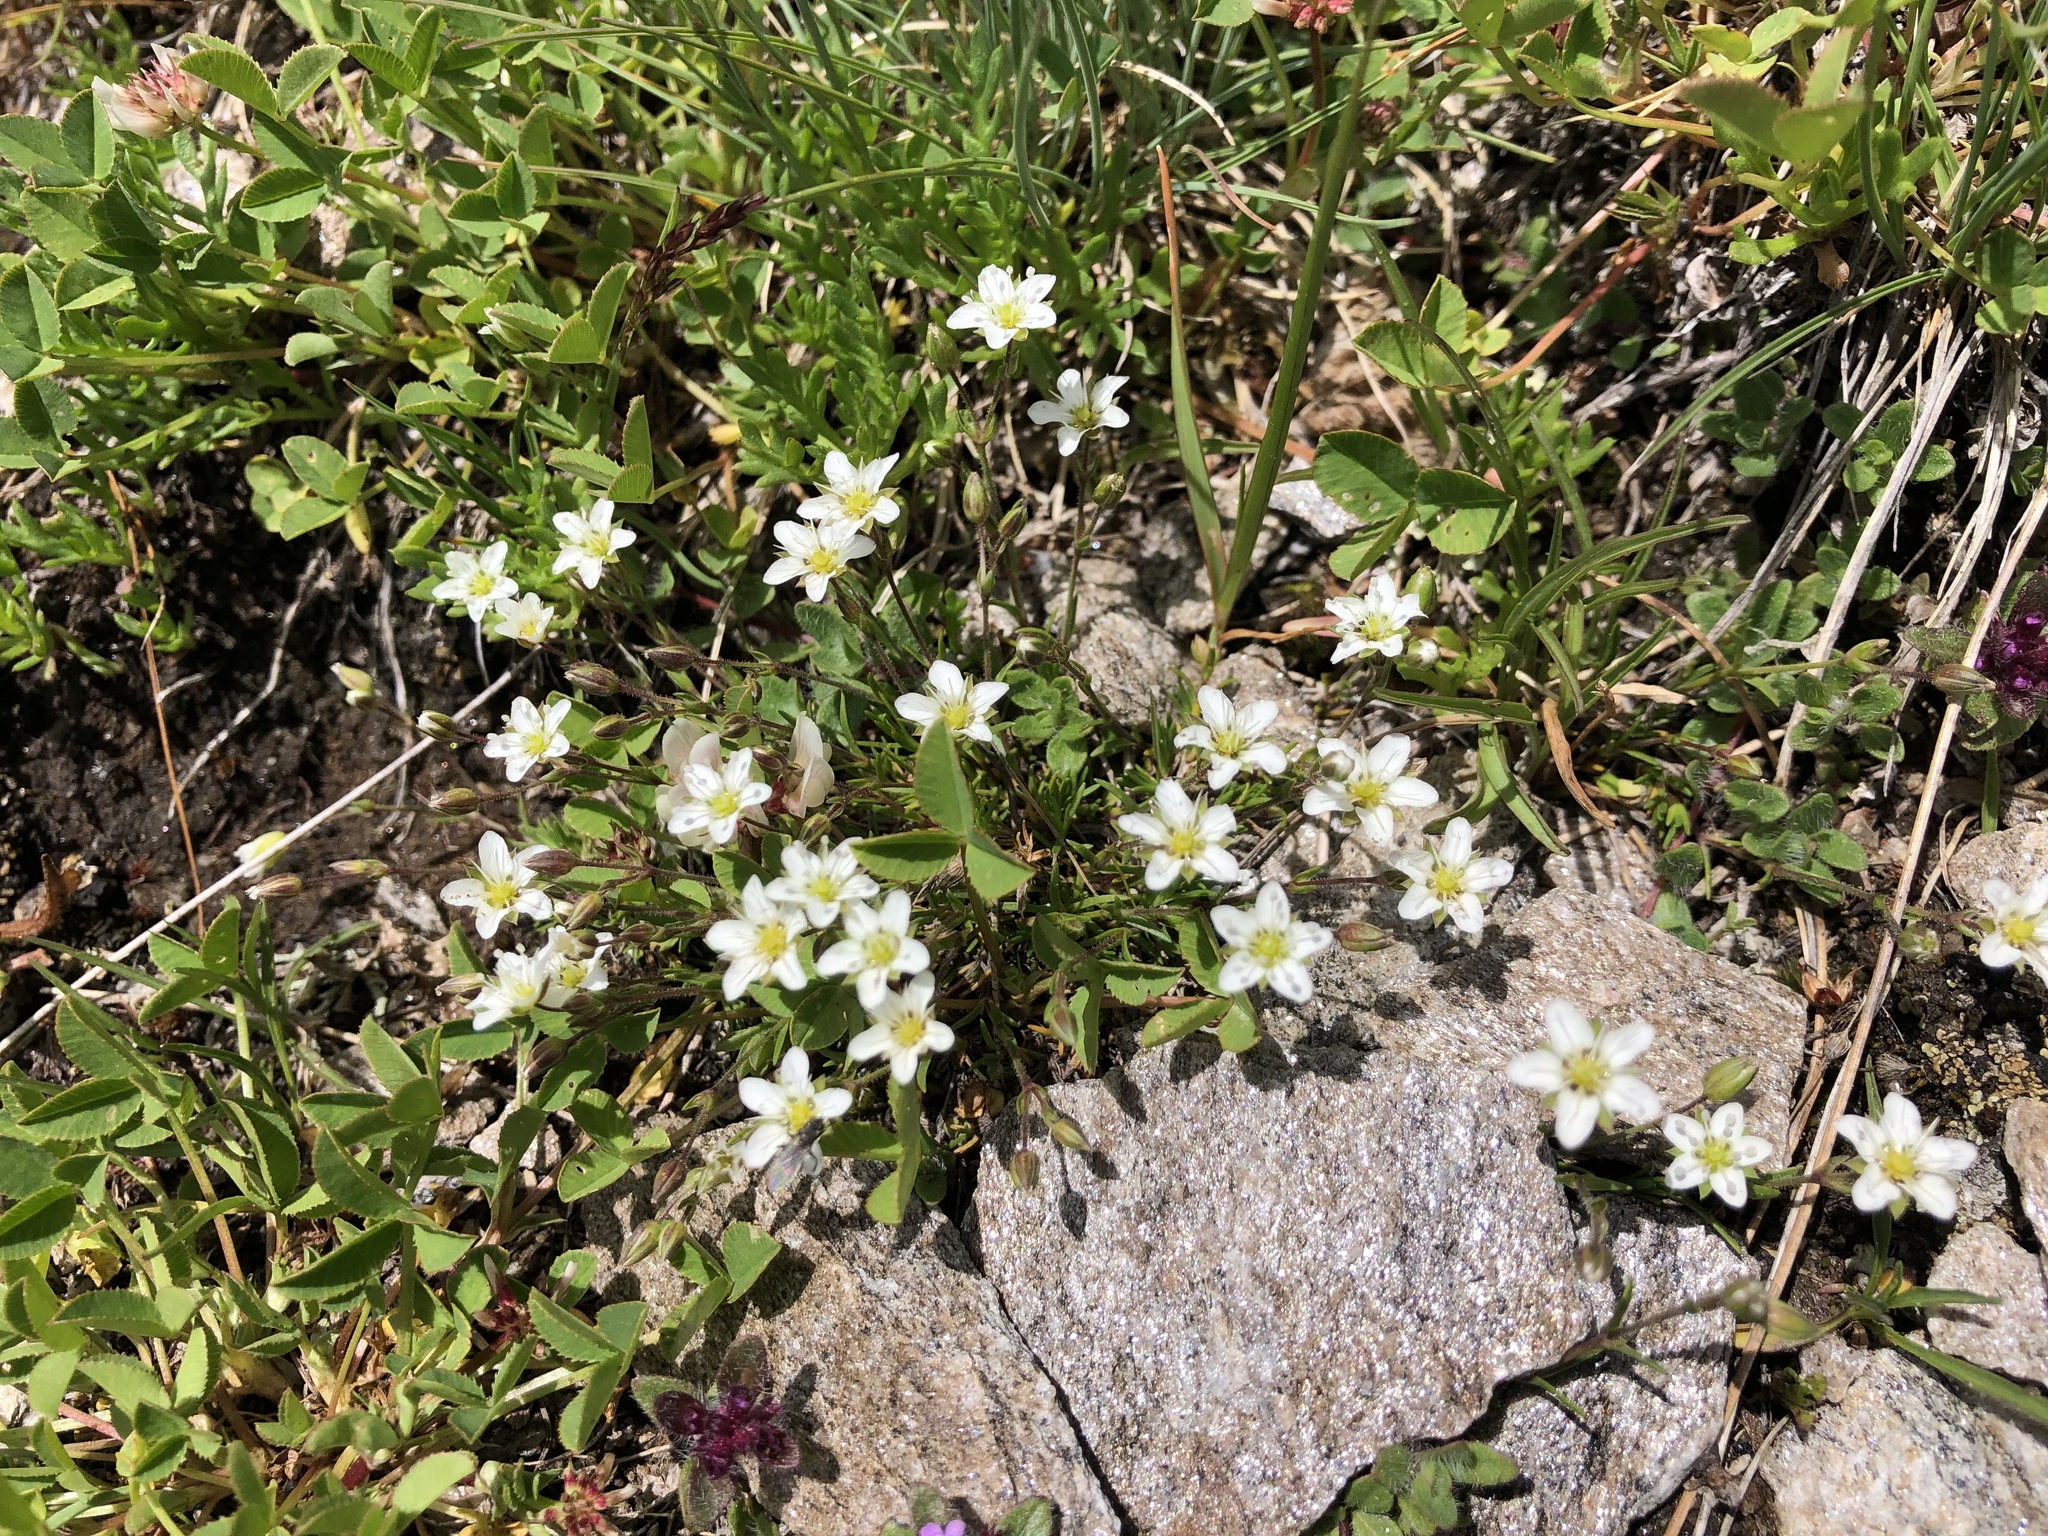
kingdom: Plantae
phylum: Tracheophyta
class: Magnoliopsida
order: Caryophyllales
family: Caryophyllaceae
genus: Sabulina
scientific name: Sabulina verna
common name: Spring sandwort
